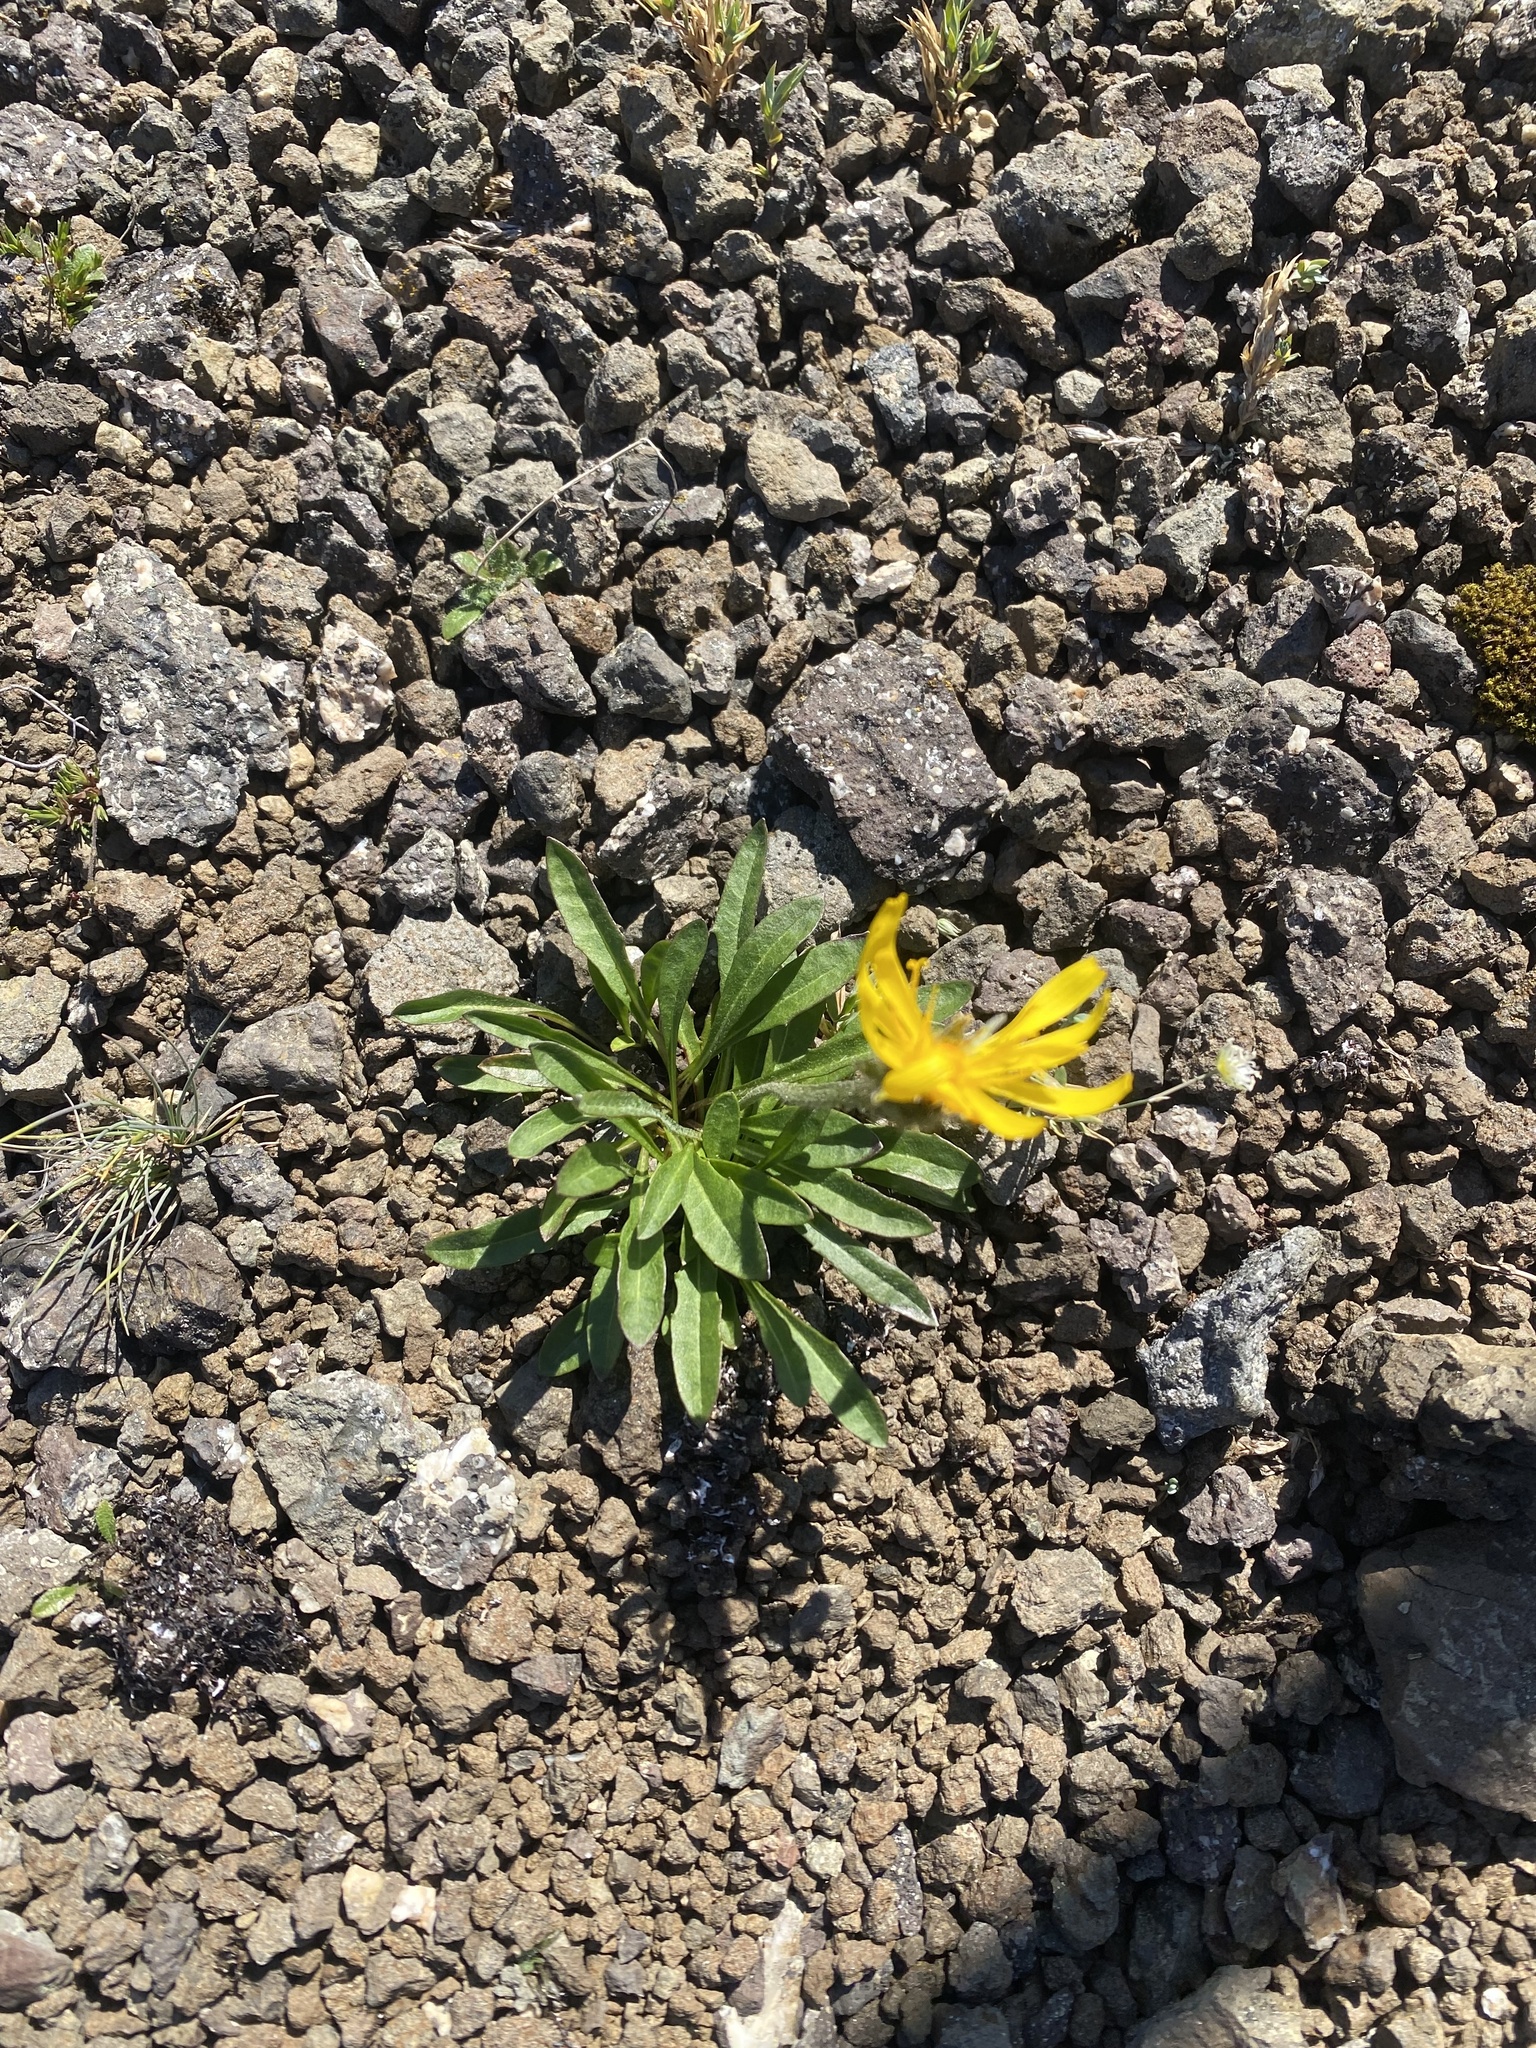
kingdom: Plantae
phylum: Tracheophyta
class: Magnoliopsida
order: Asterales
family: Asteraceae
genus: Crepis
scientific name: Crepis chrysantha
